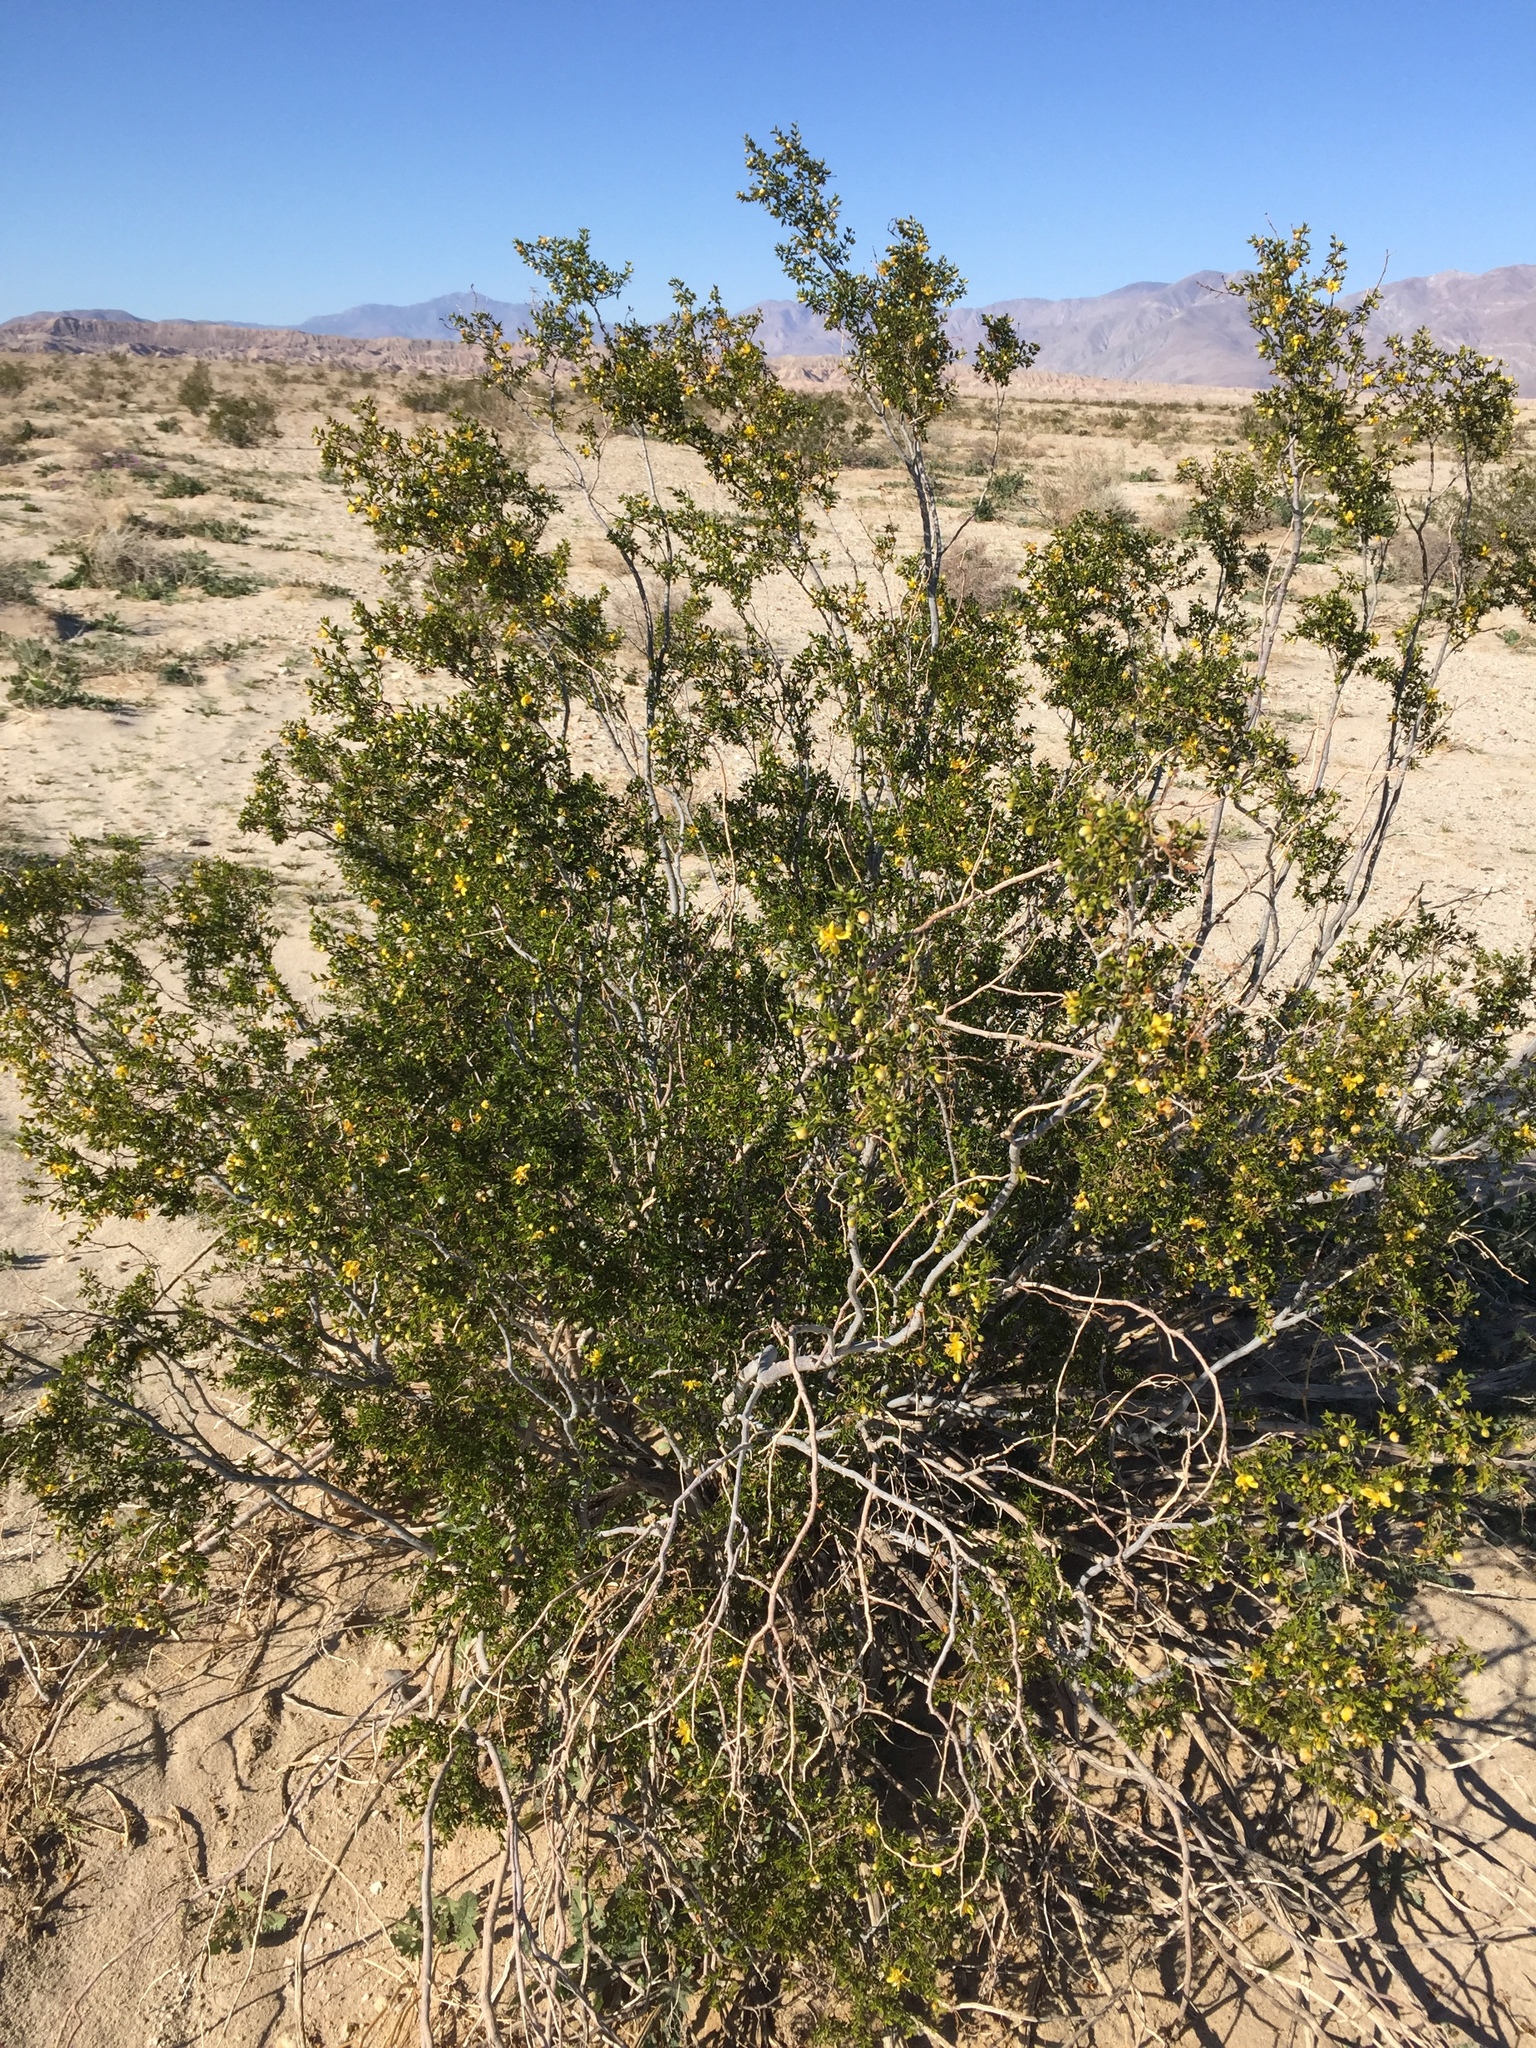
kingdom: Plantae
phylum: Tracheophyta
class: Magnoliopsida
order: Zygophyllales
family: Zygophyllaceae
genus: Larrea
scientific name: Larrea tridentata
